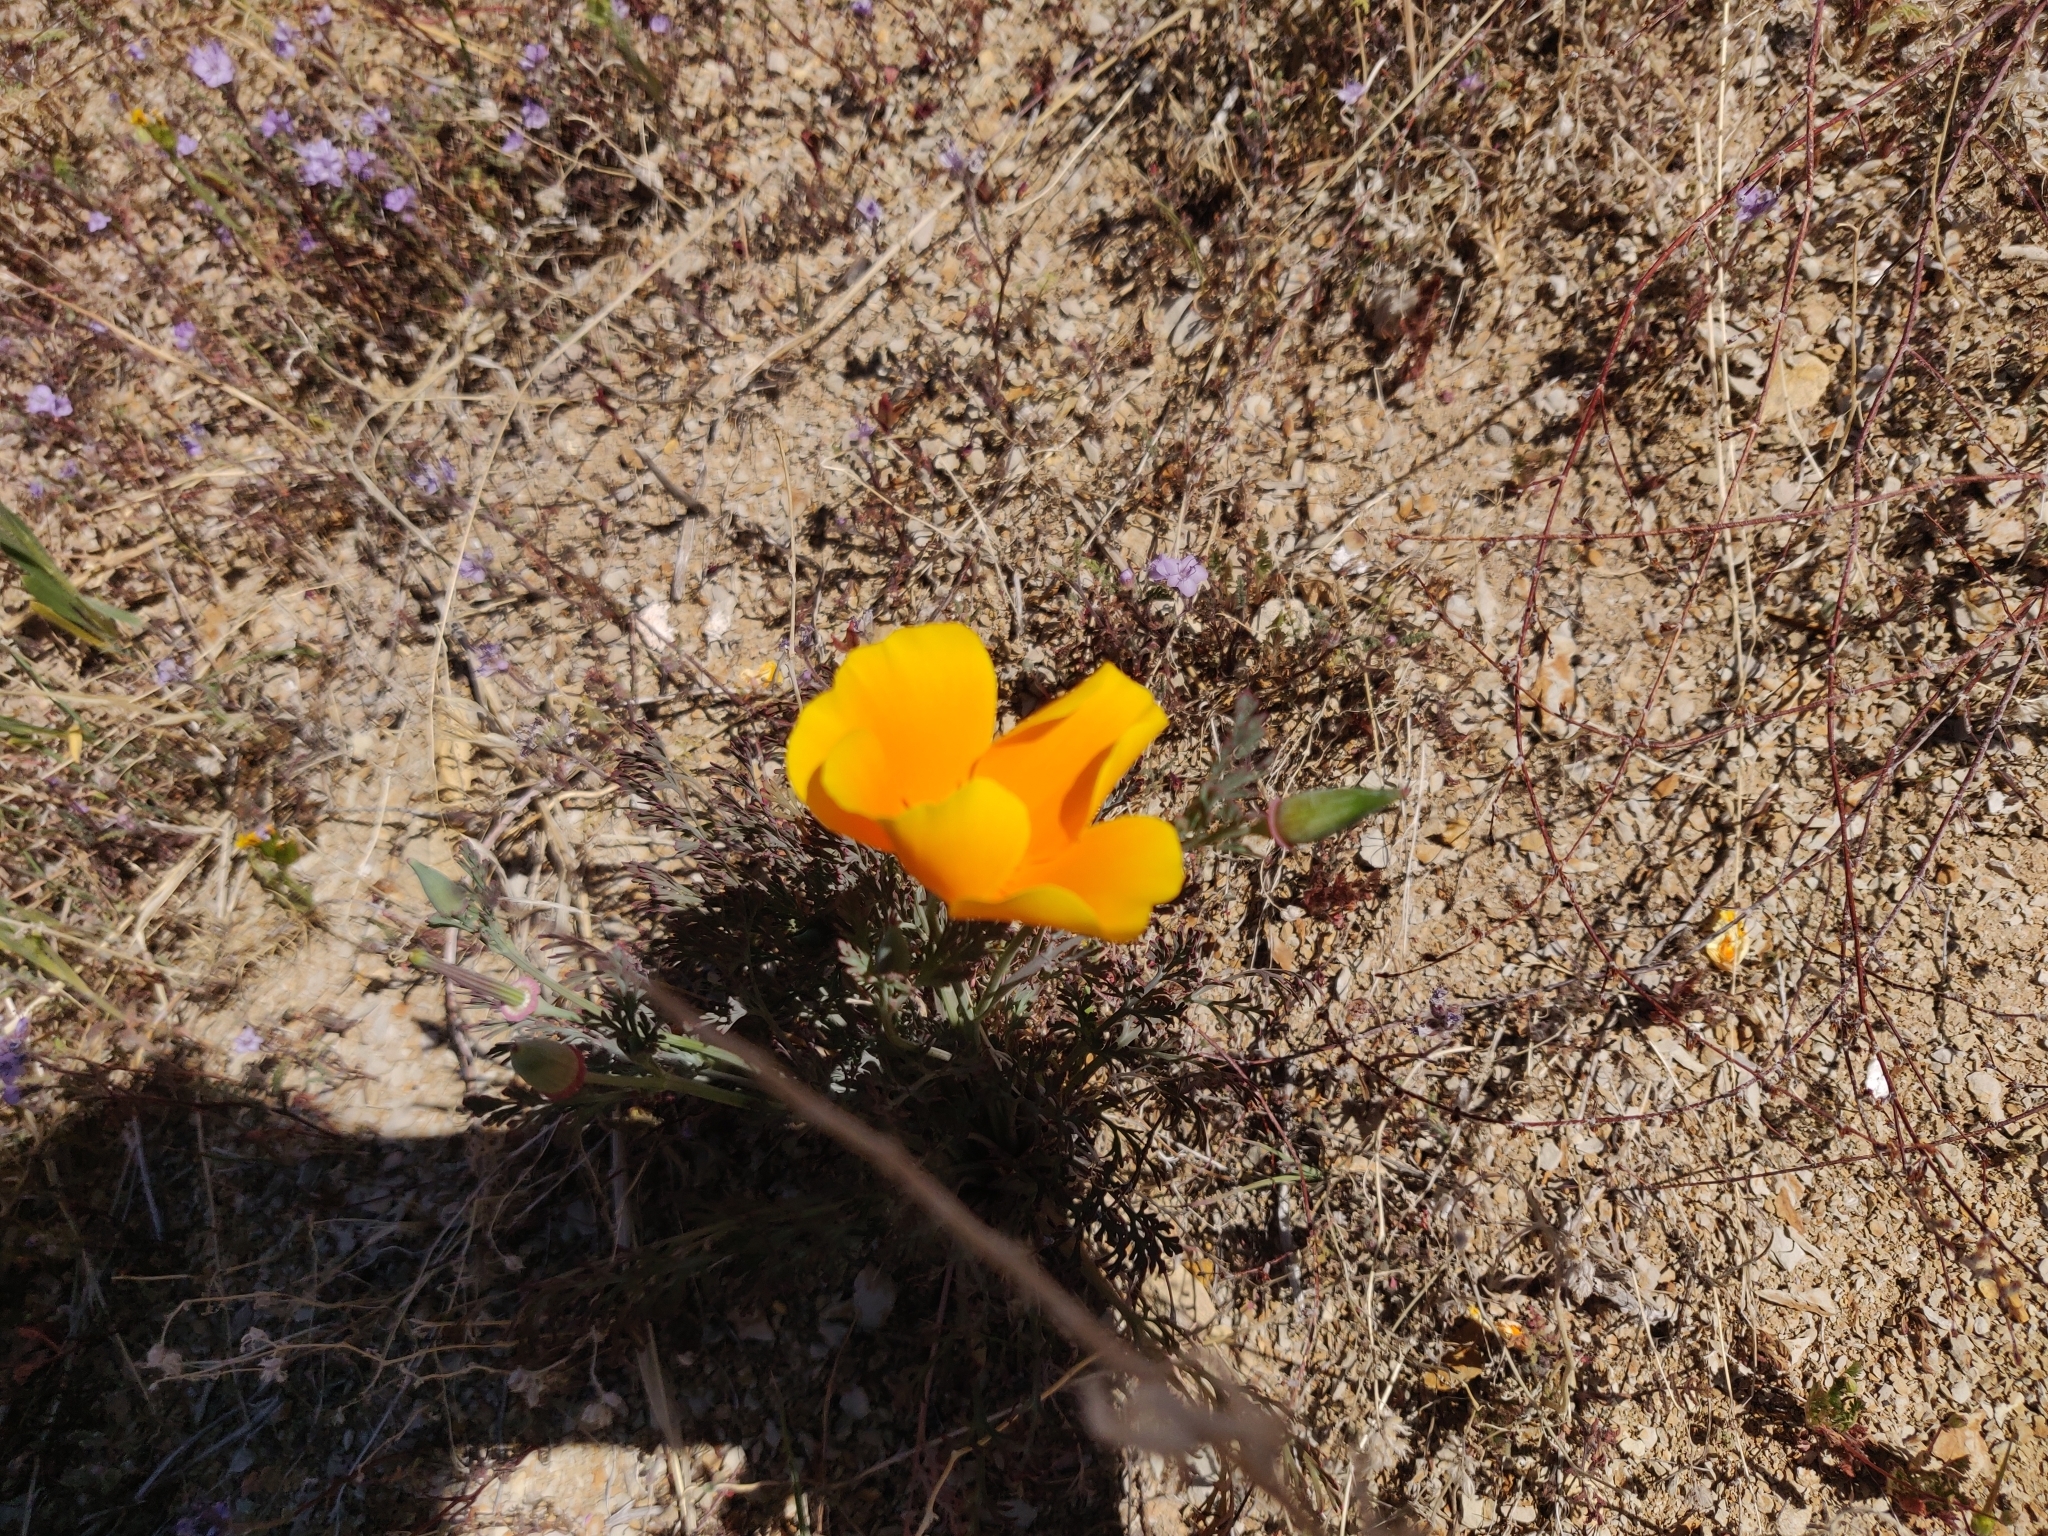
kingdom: Plantae
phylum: Tracheophyta
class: Magnoliopsida
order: Ranunculales
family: Papaveraceae
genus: Eschscholzia
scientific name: Eschscholzia californica
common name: California poppy
